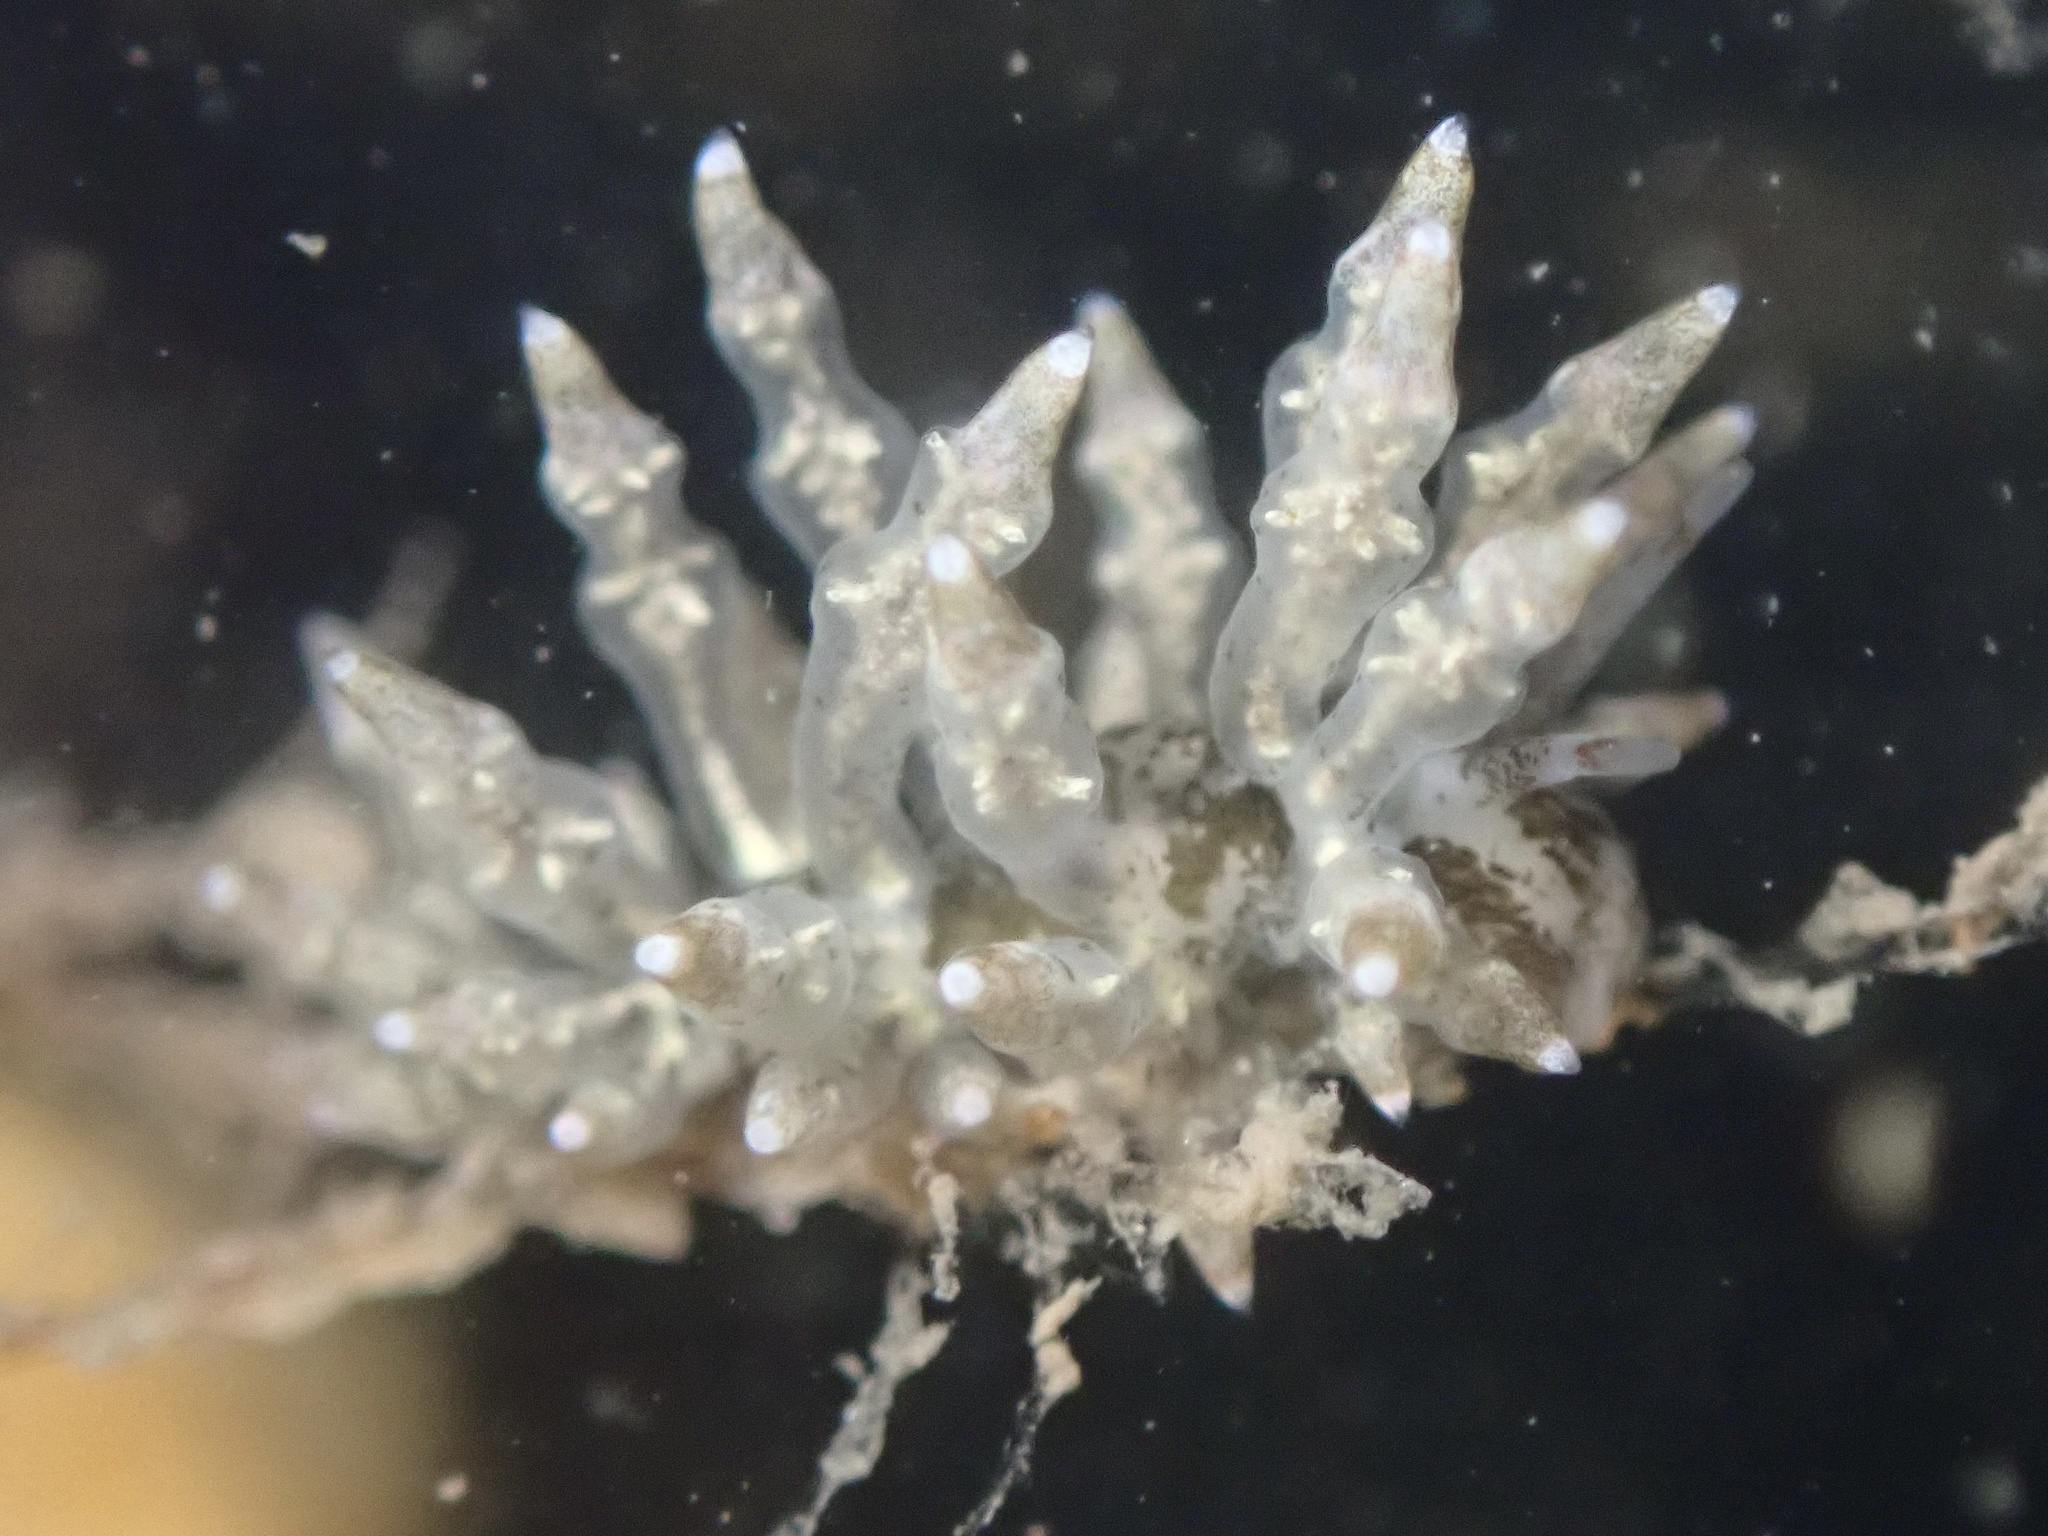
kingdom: Animalia
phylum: Mollusca
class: Gastropoda
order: Nudibranchia
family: Eubranchidae
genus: Eubranchus
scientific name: Eubranchus rustyus
